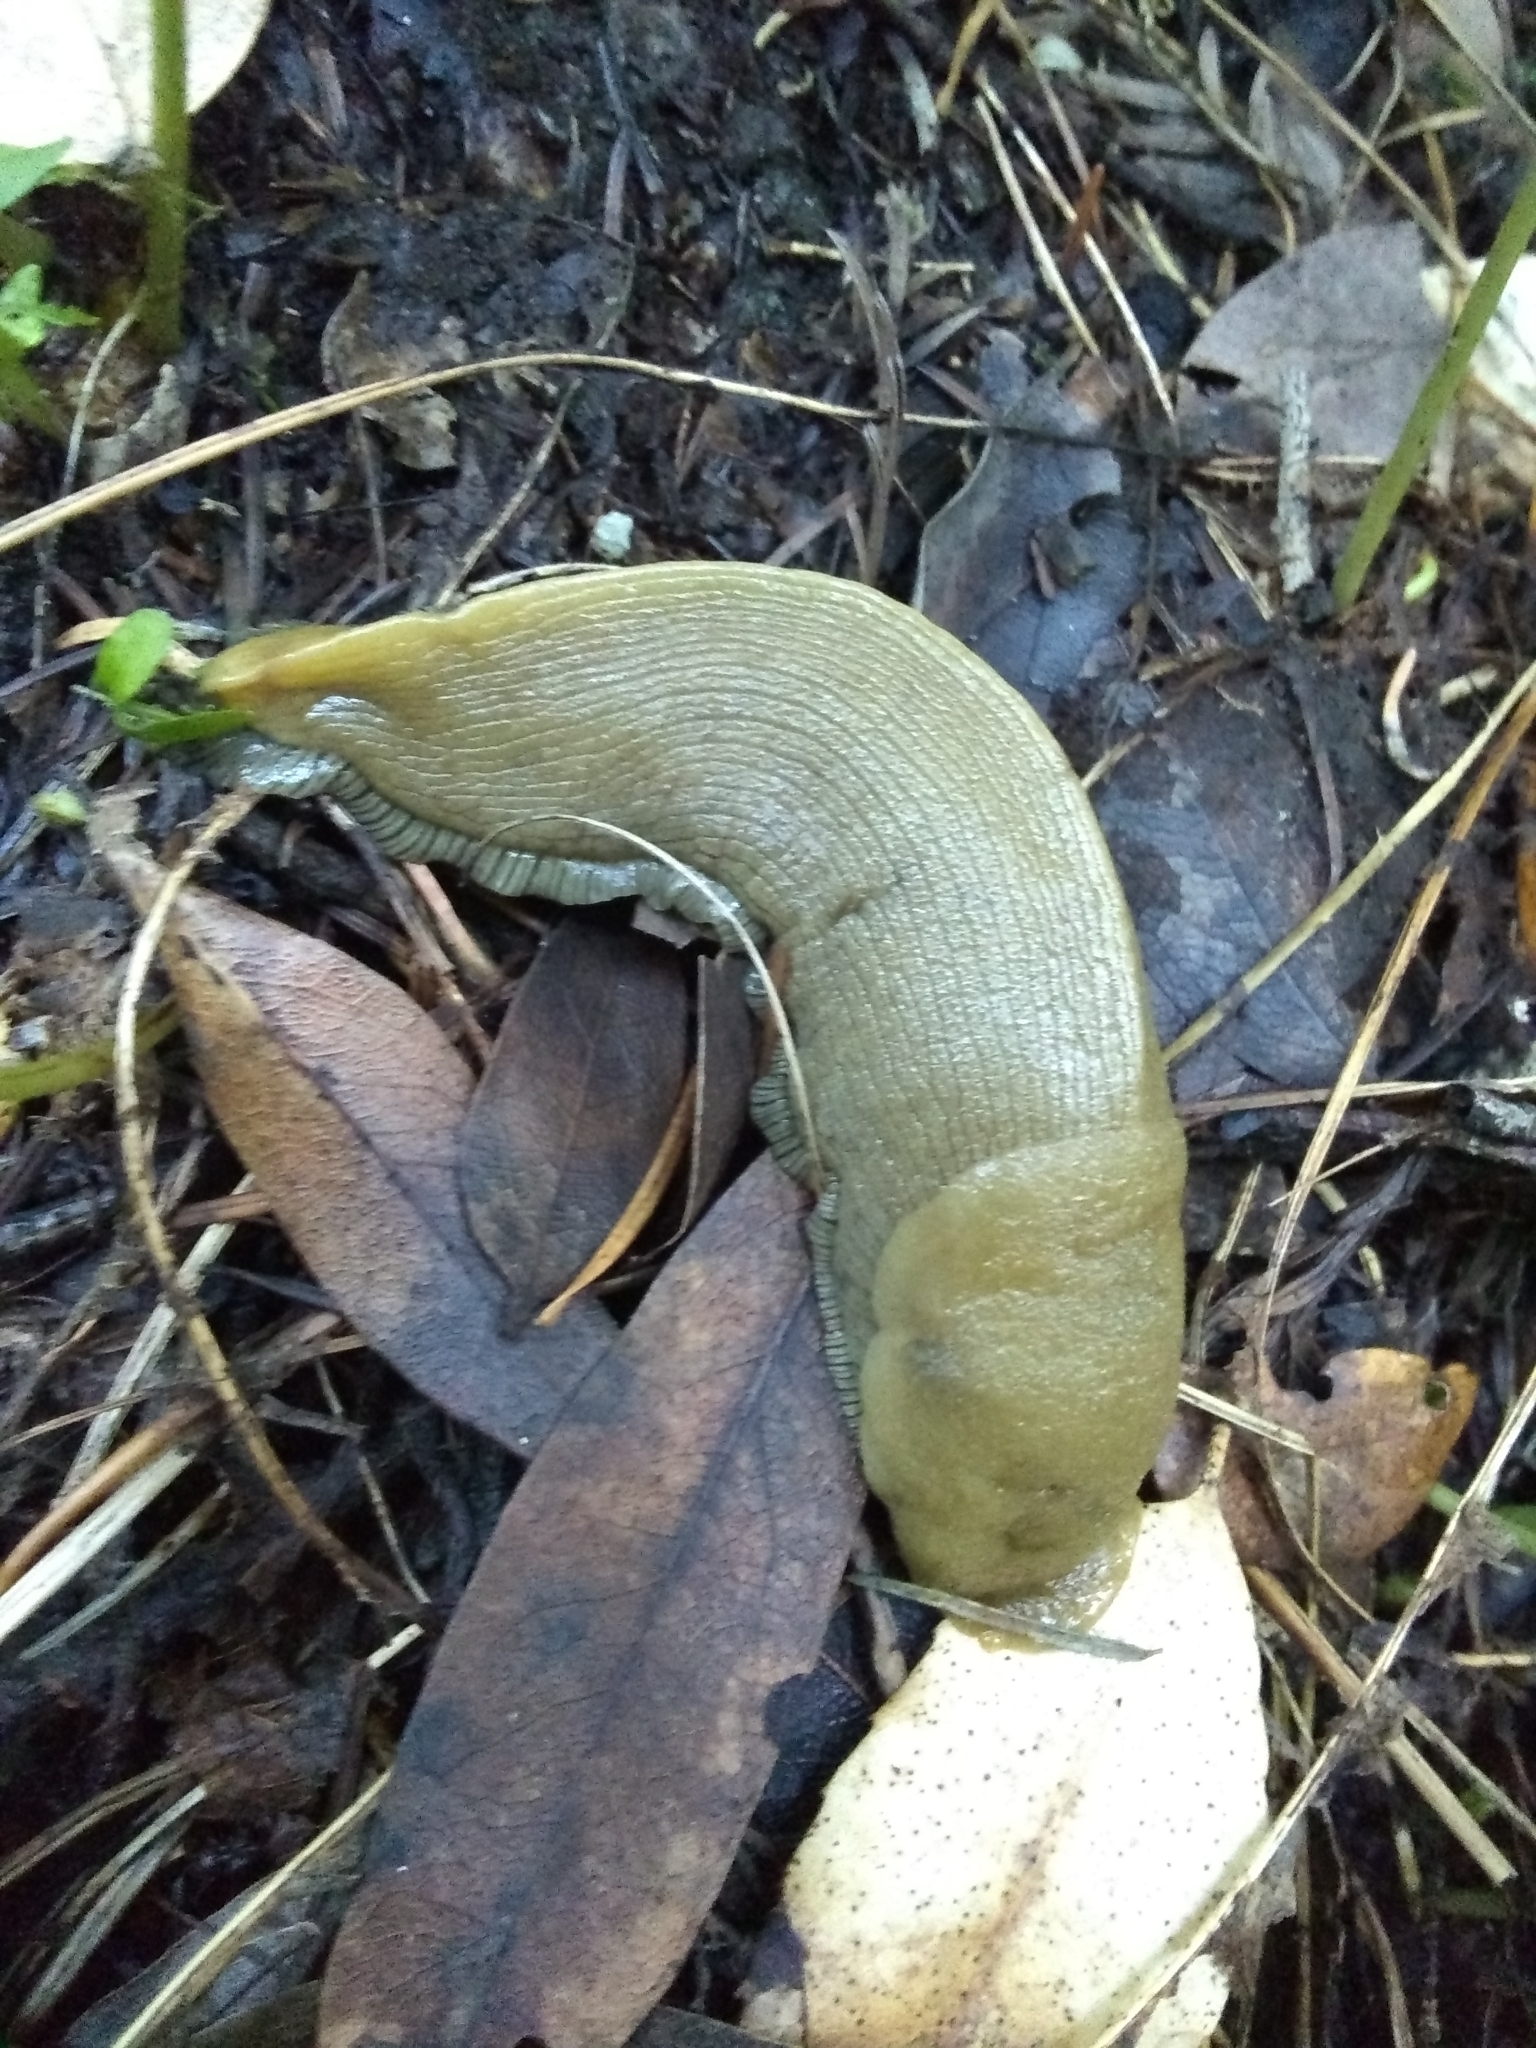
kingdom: Animalia
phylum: Mollusca
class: Gastropoda
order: Stylommatophora
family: Ariolimacidae
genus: Ariolimax
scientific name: Ariolimax buttoni
